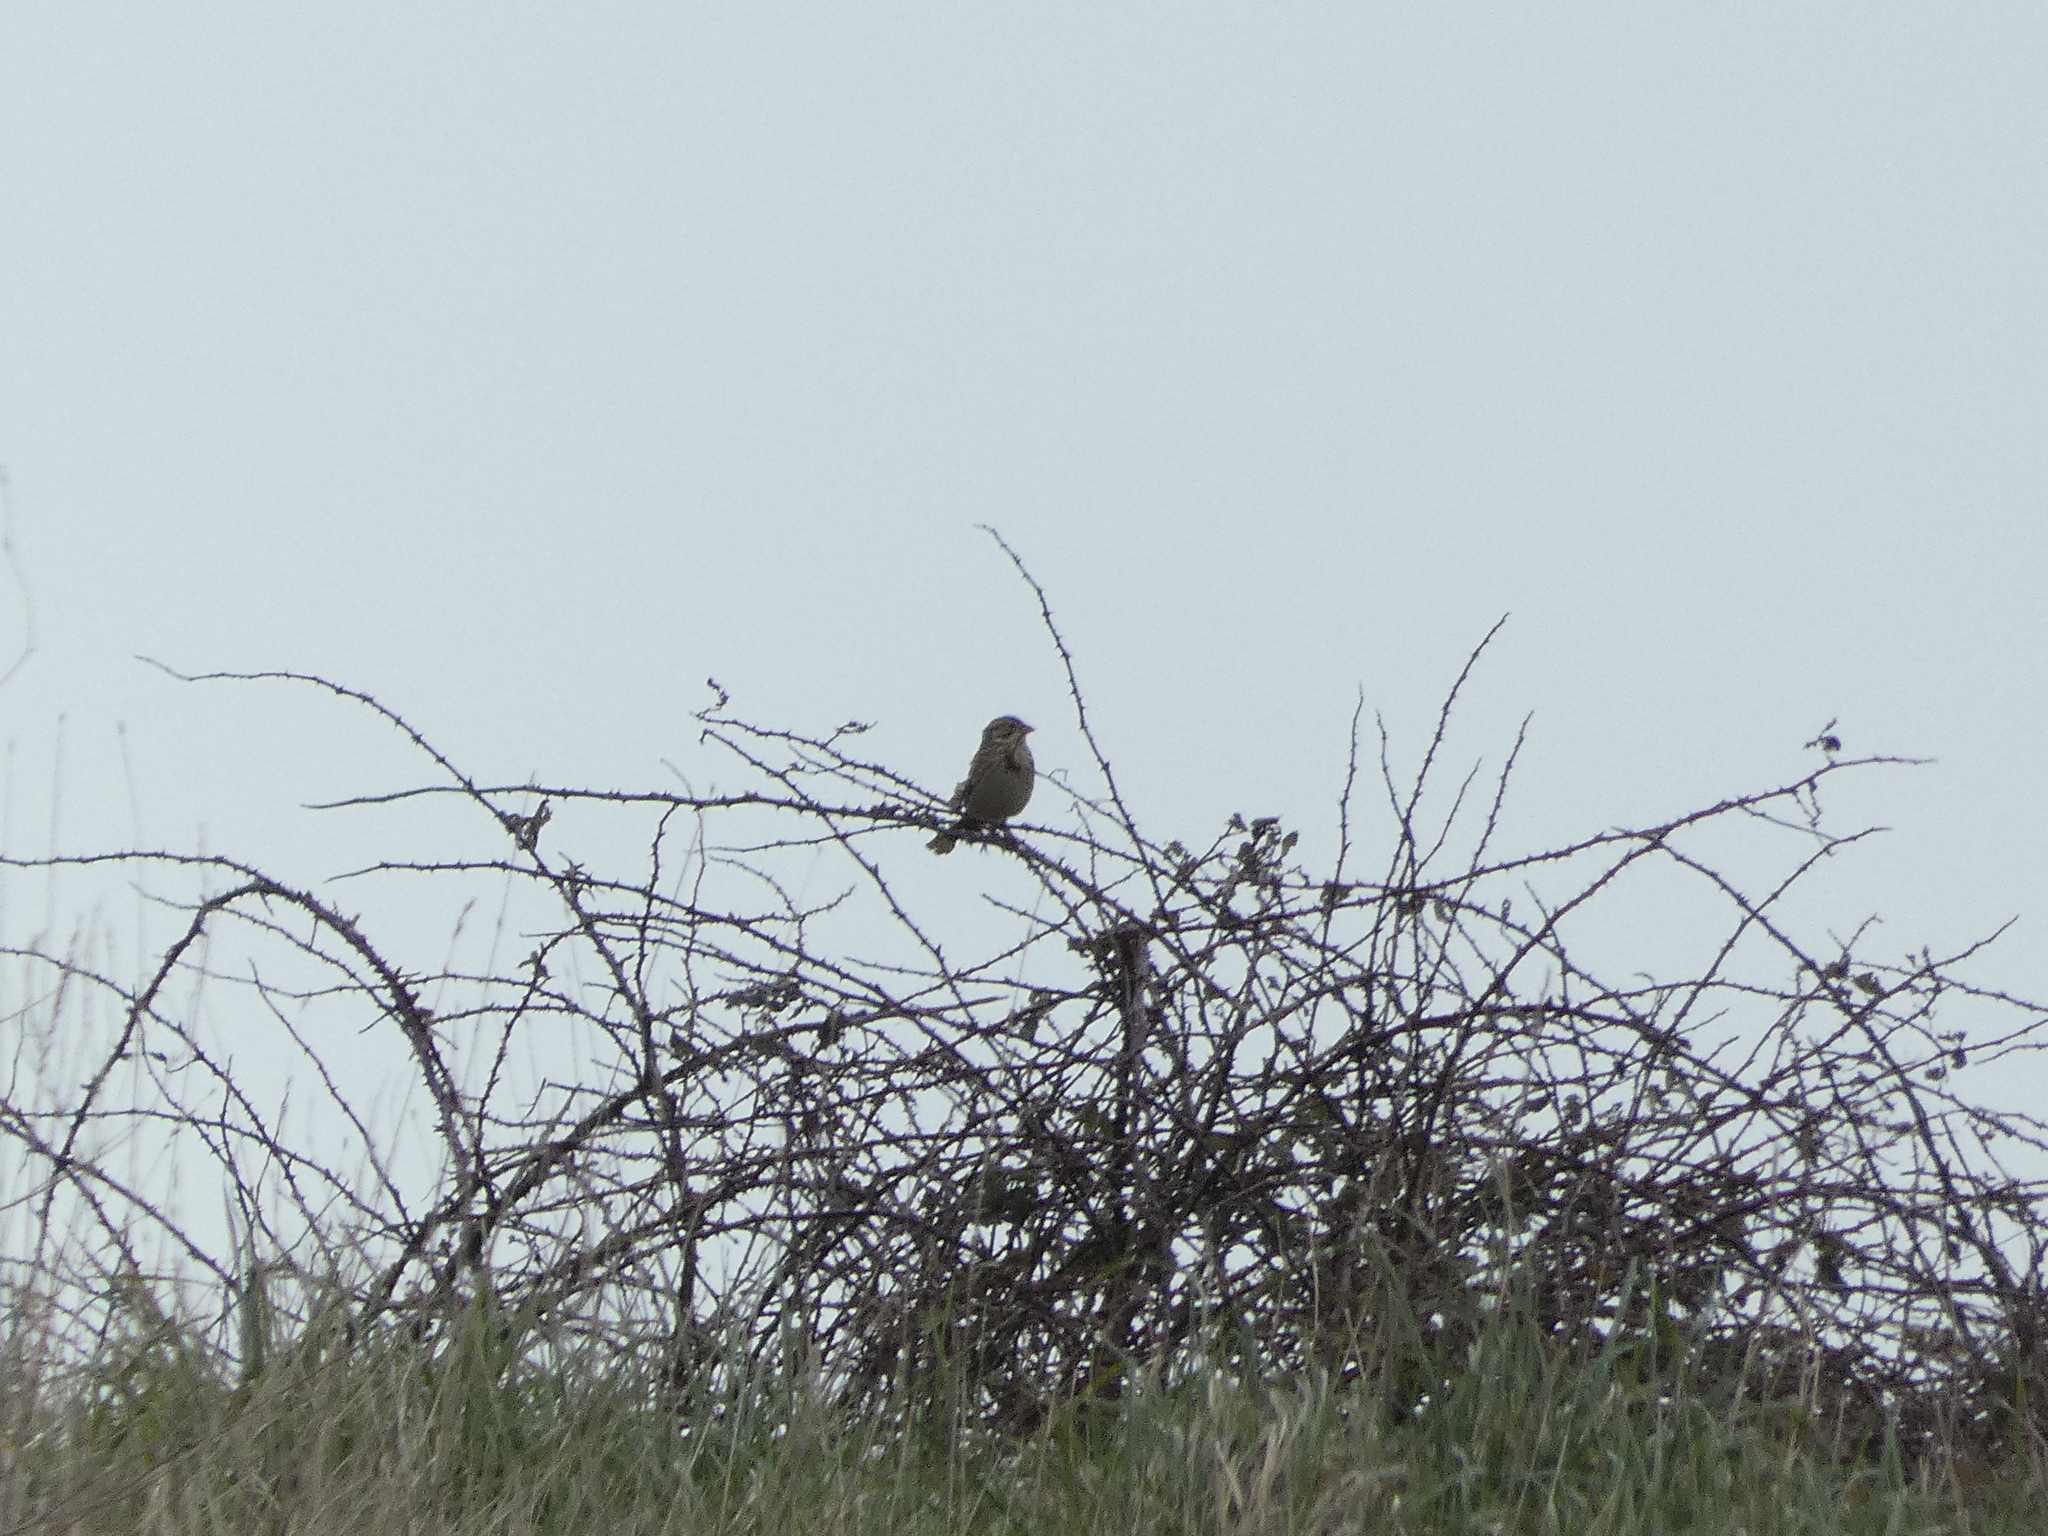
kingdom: Animalia
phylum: Chordata
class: Aves
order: Passeriformes
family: Emberizidae
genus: Emberiza
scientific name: Emberiza schoeniclus
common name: Reed bunting
